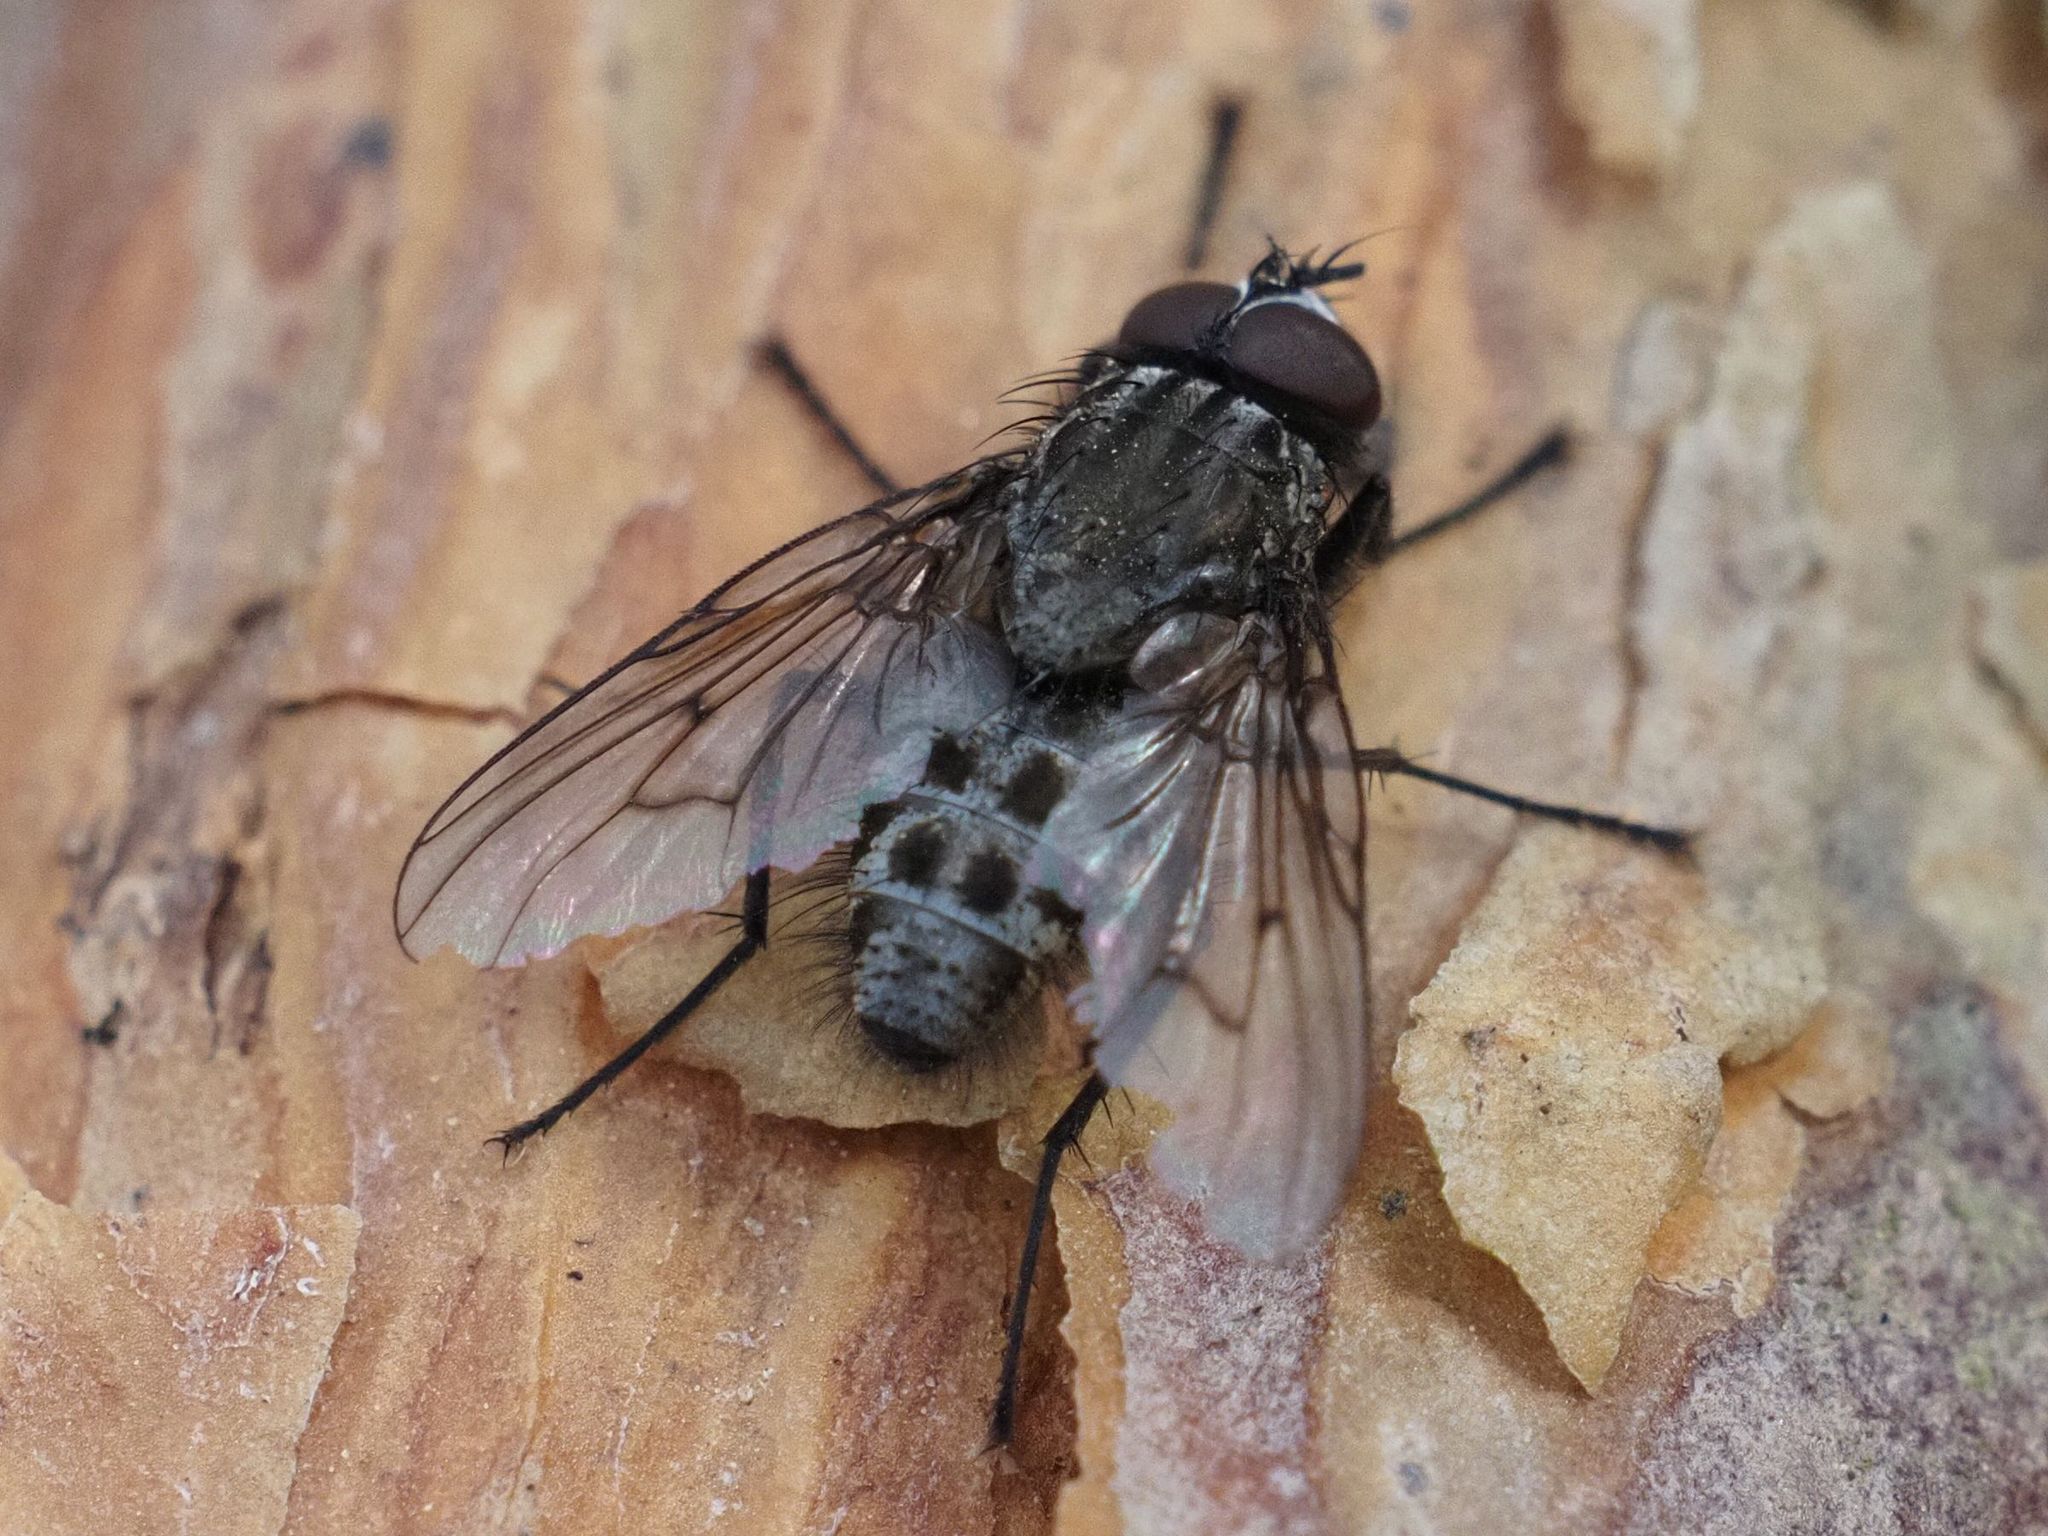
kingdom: Animalia
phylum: Arthropoda
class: Insecta
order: Diptera
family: Muscidae
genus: Helina
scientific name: Helina evecta
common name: Muscid fly
